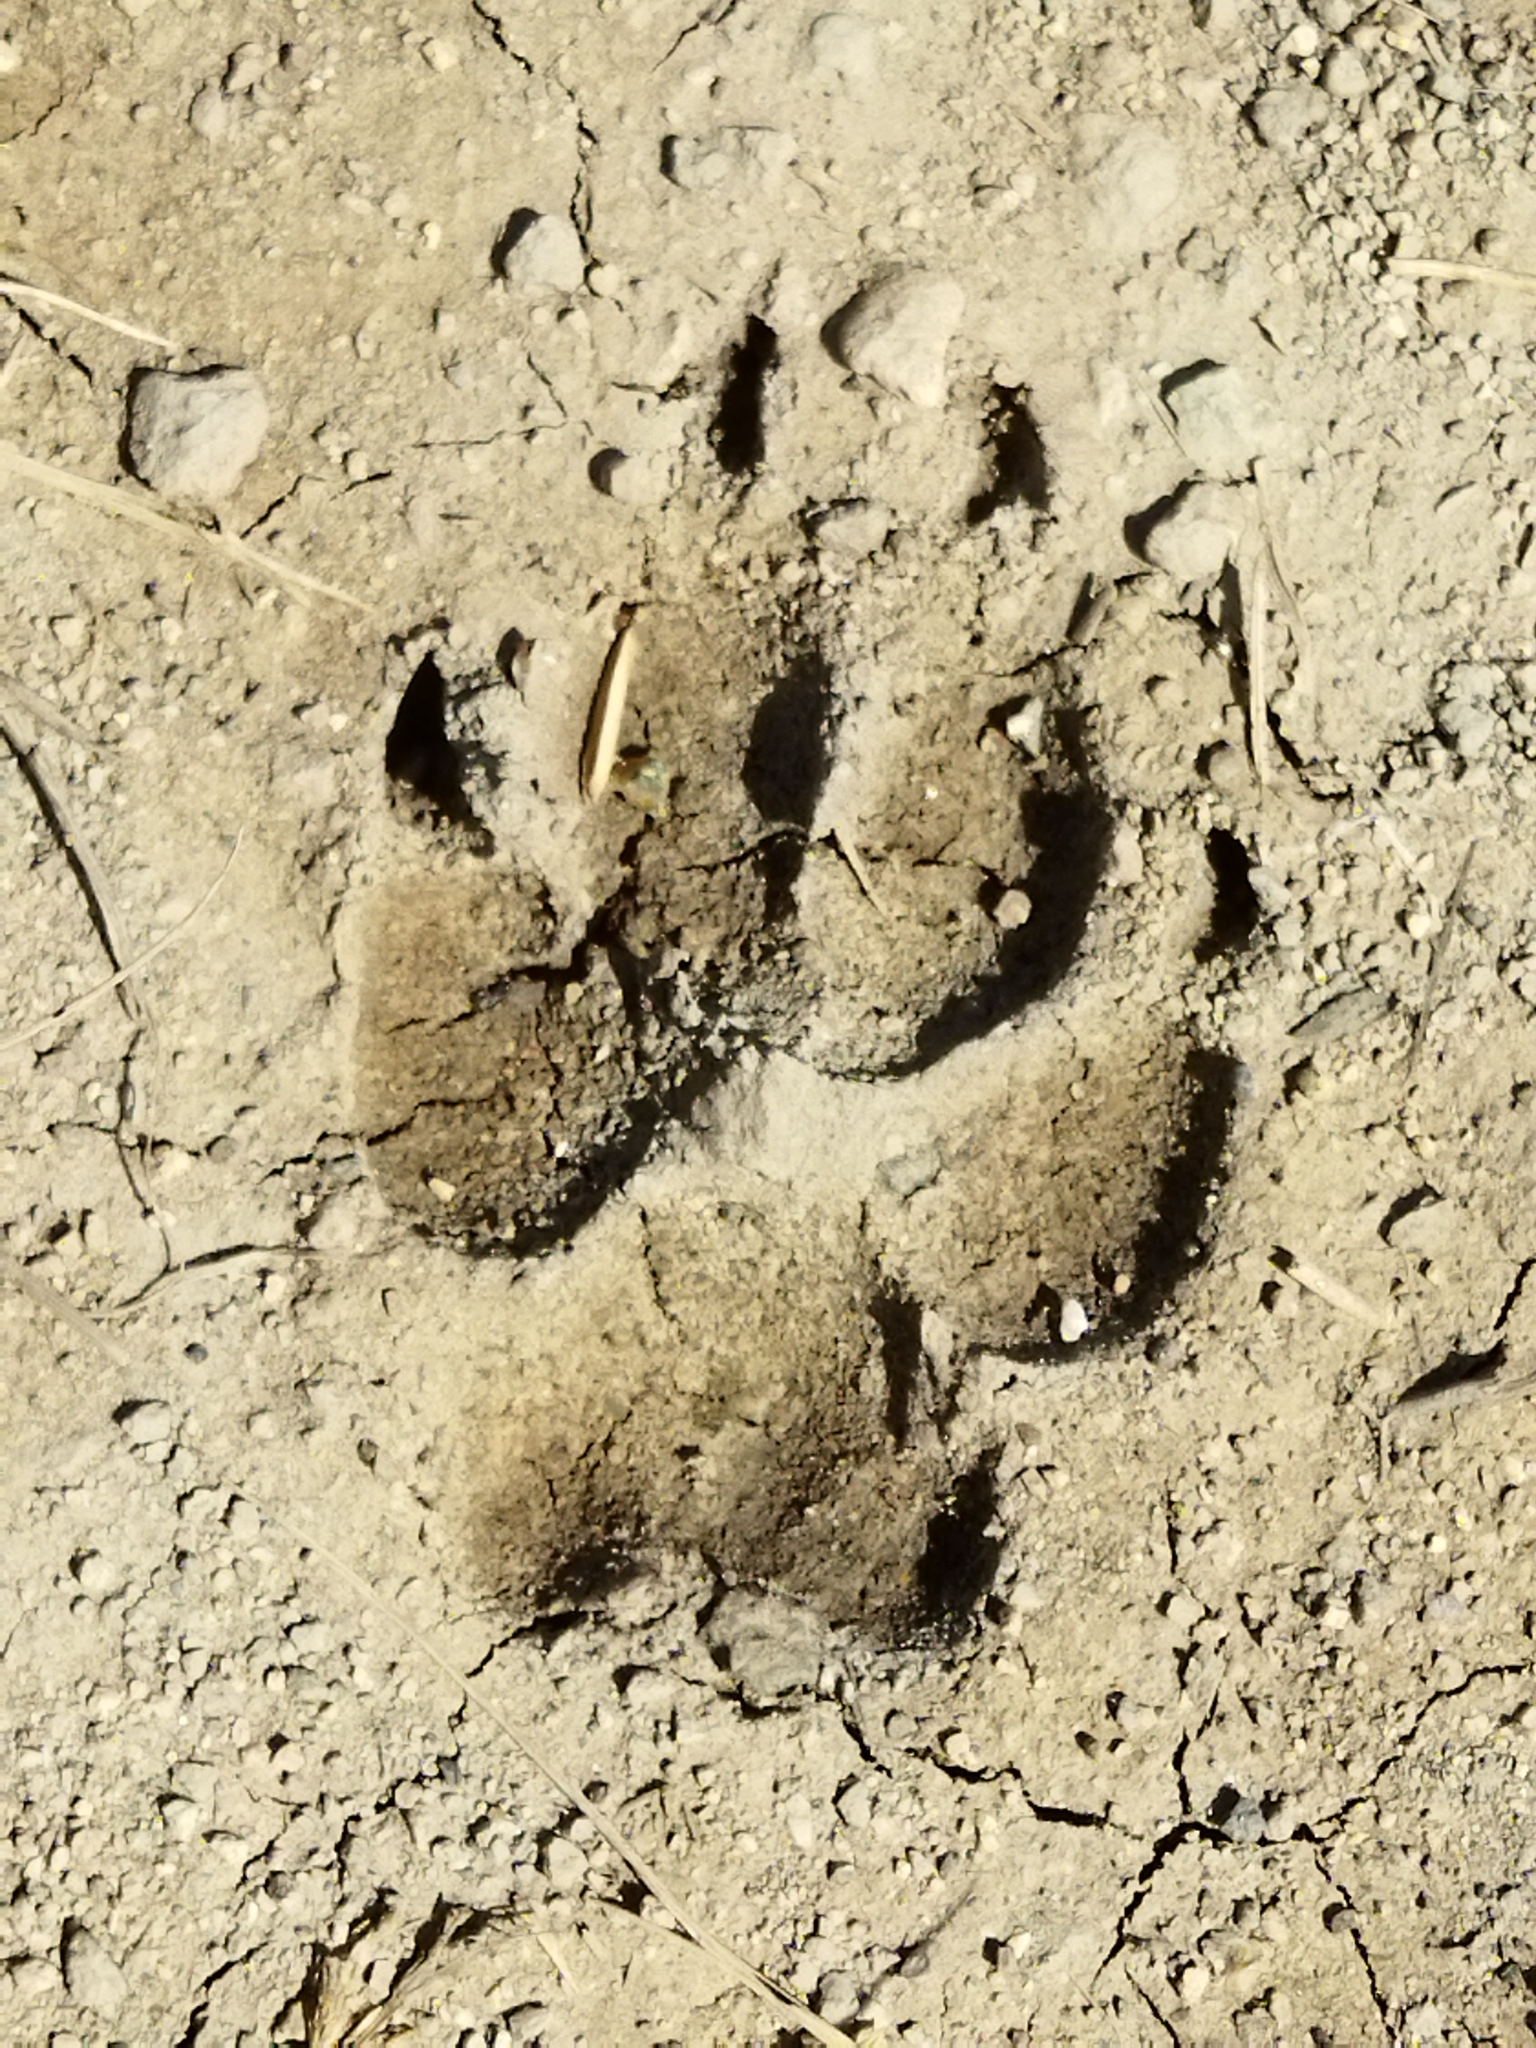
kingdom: Animalia
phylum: Chordata
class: Mammalia
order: Carnivora
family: Canidae
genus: Canis
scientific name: Canis aureus
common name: Golden jackal
